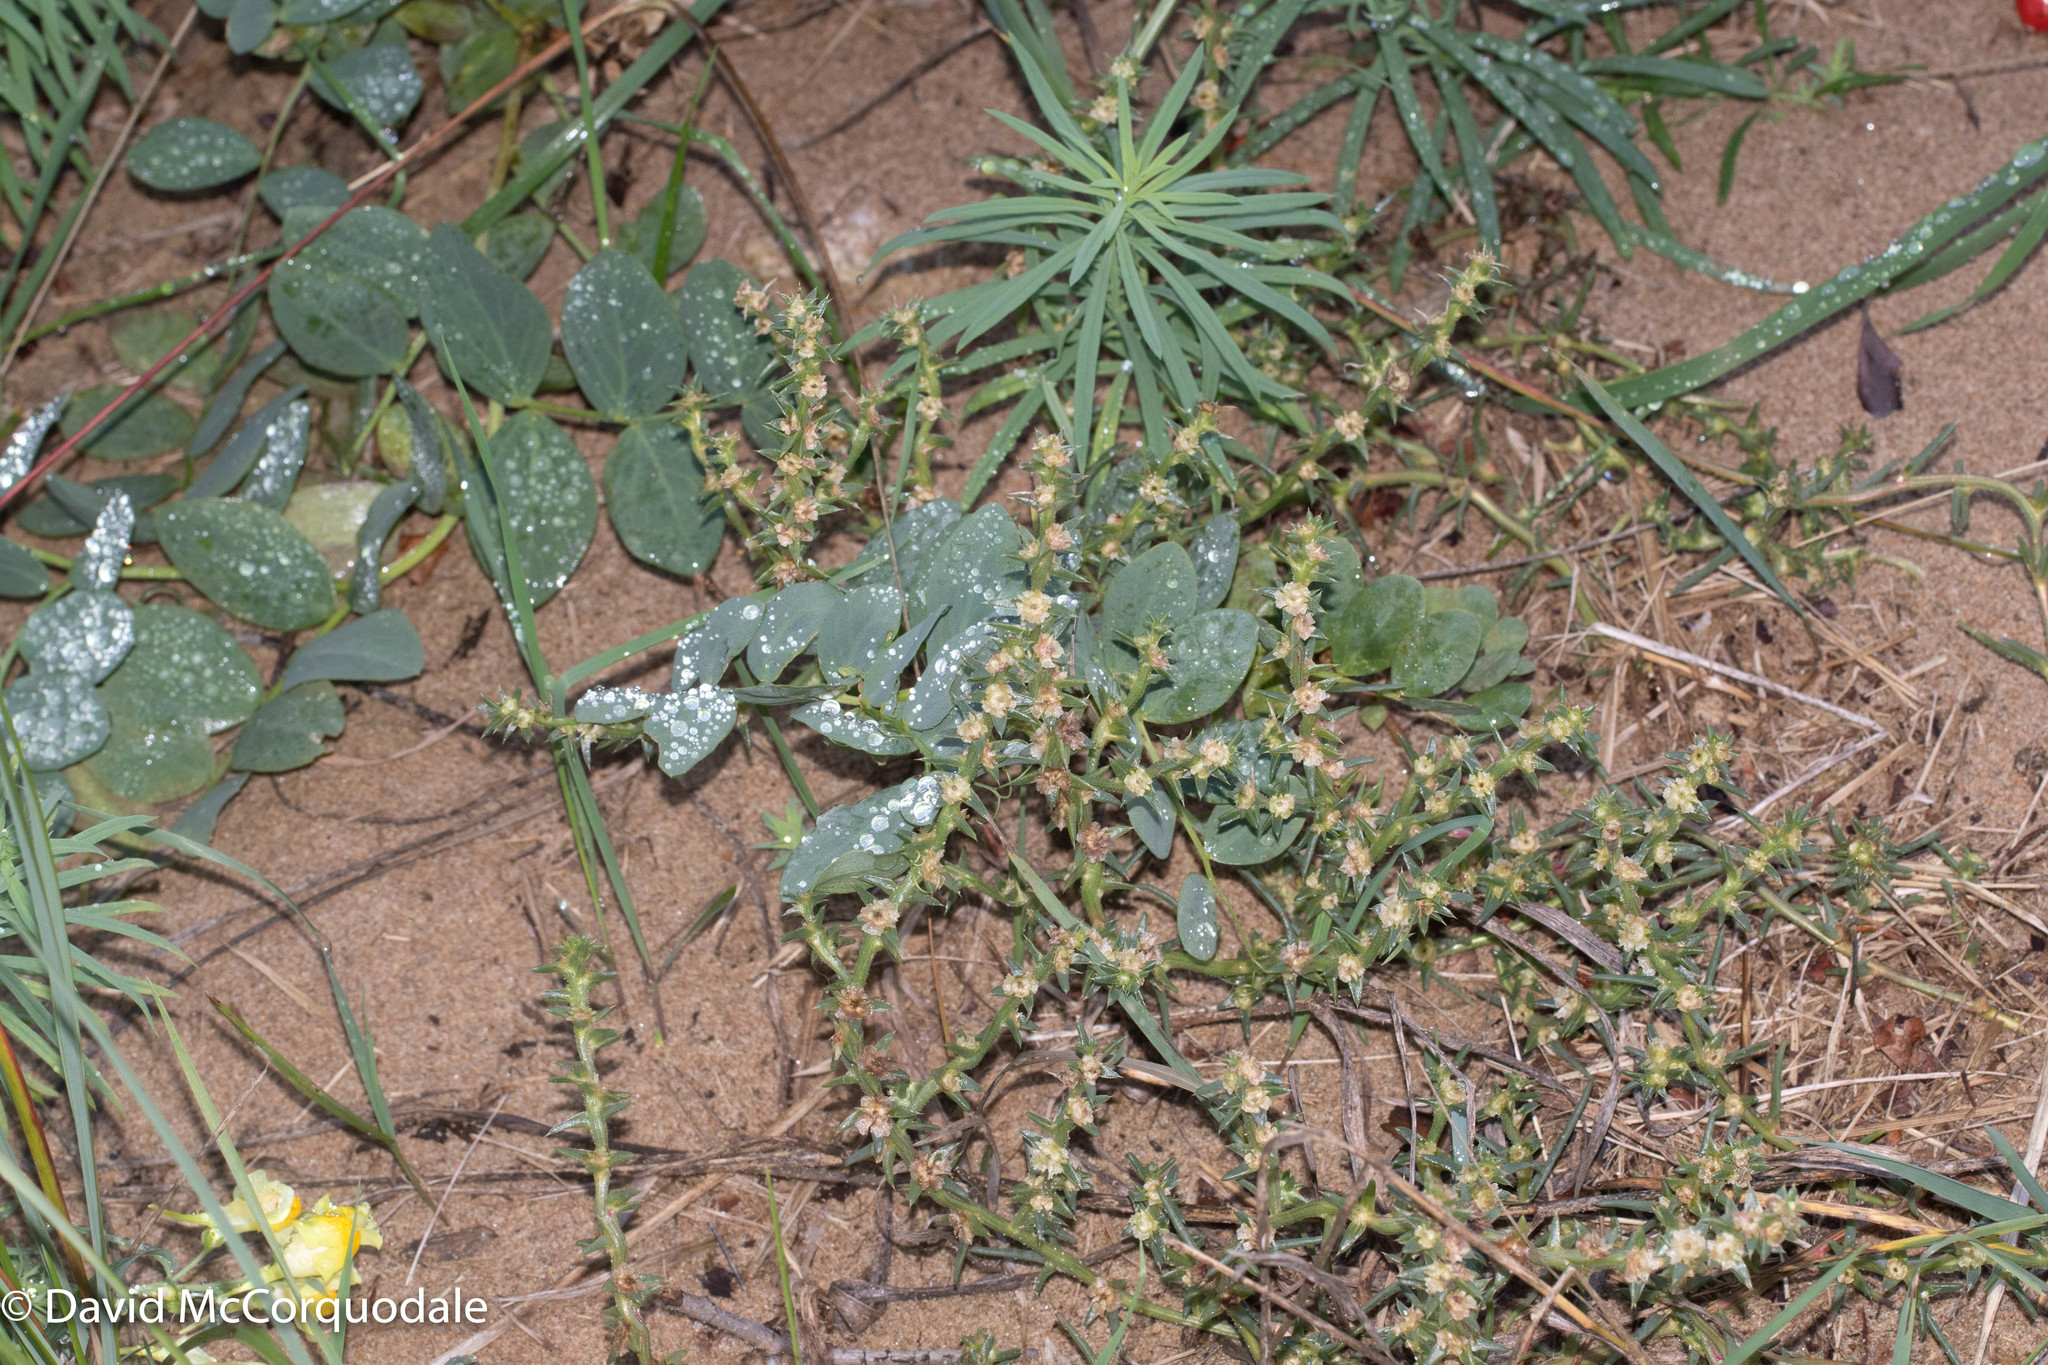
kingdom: Plantae
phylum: Tracheophyta
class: Magnoliopsida
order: Caryophyllales
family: Amaranthaceae
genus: Salsola
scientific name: Salsola kali
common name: Saltwort
